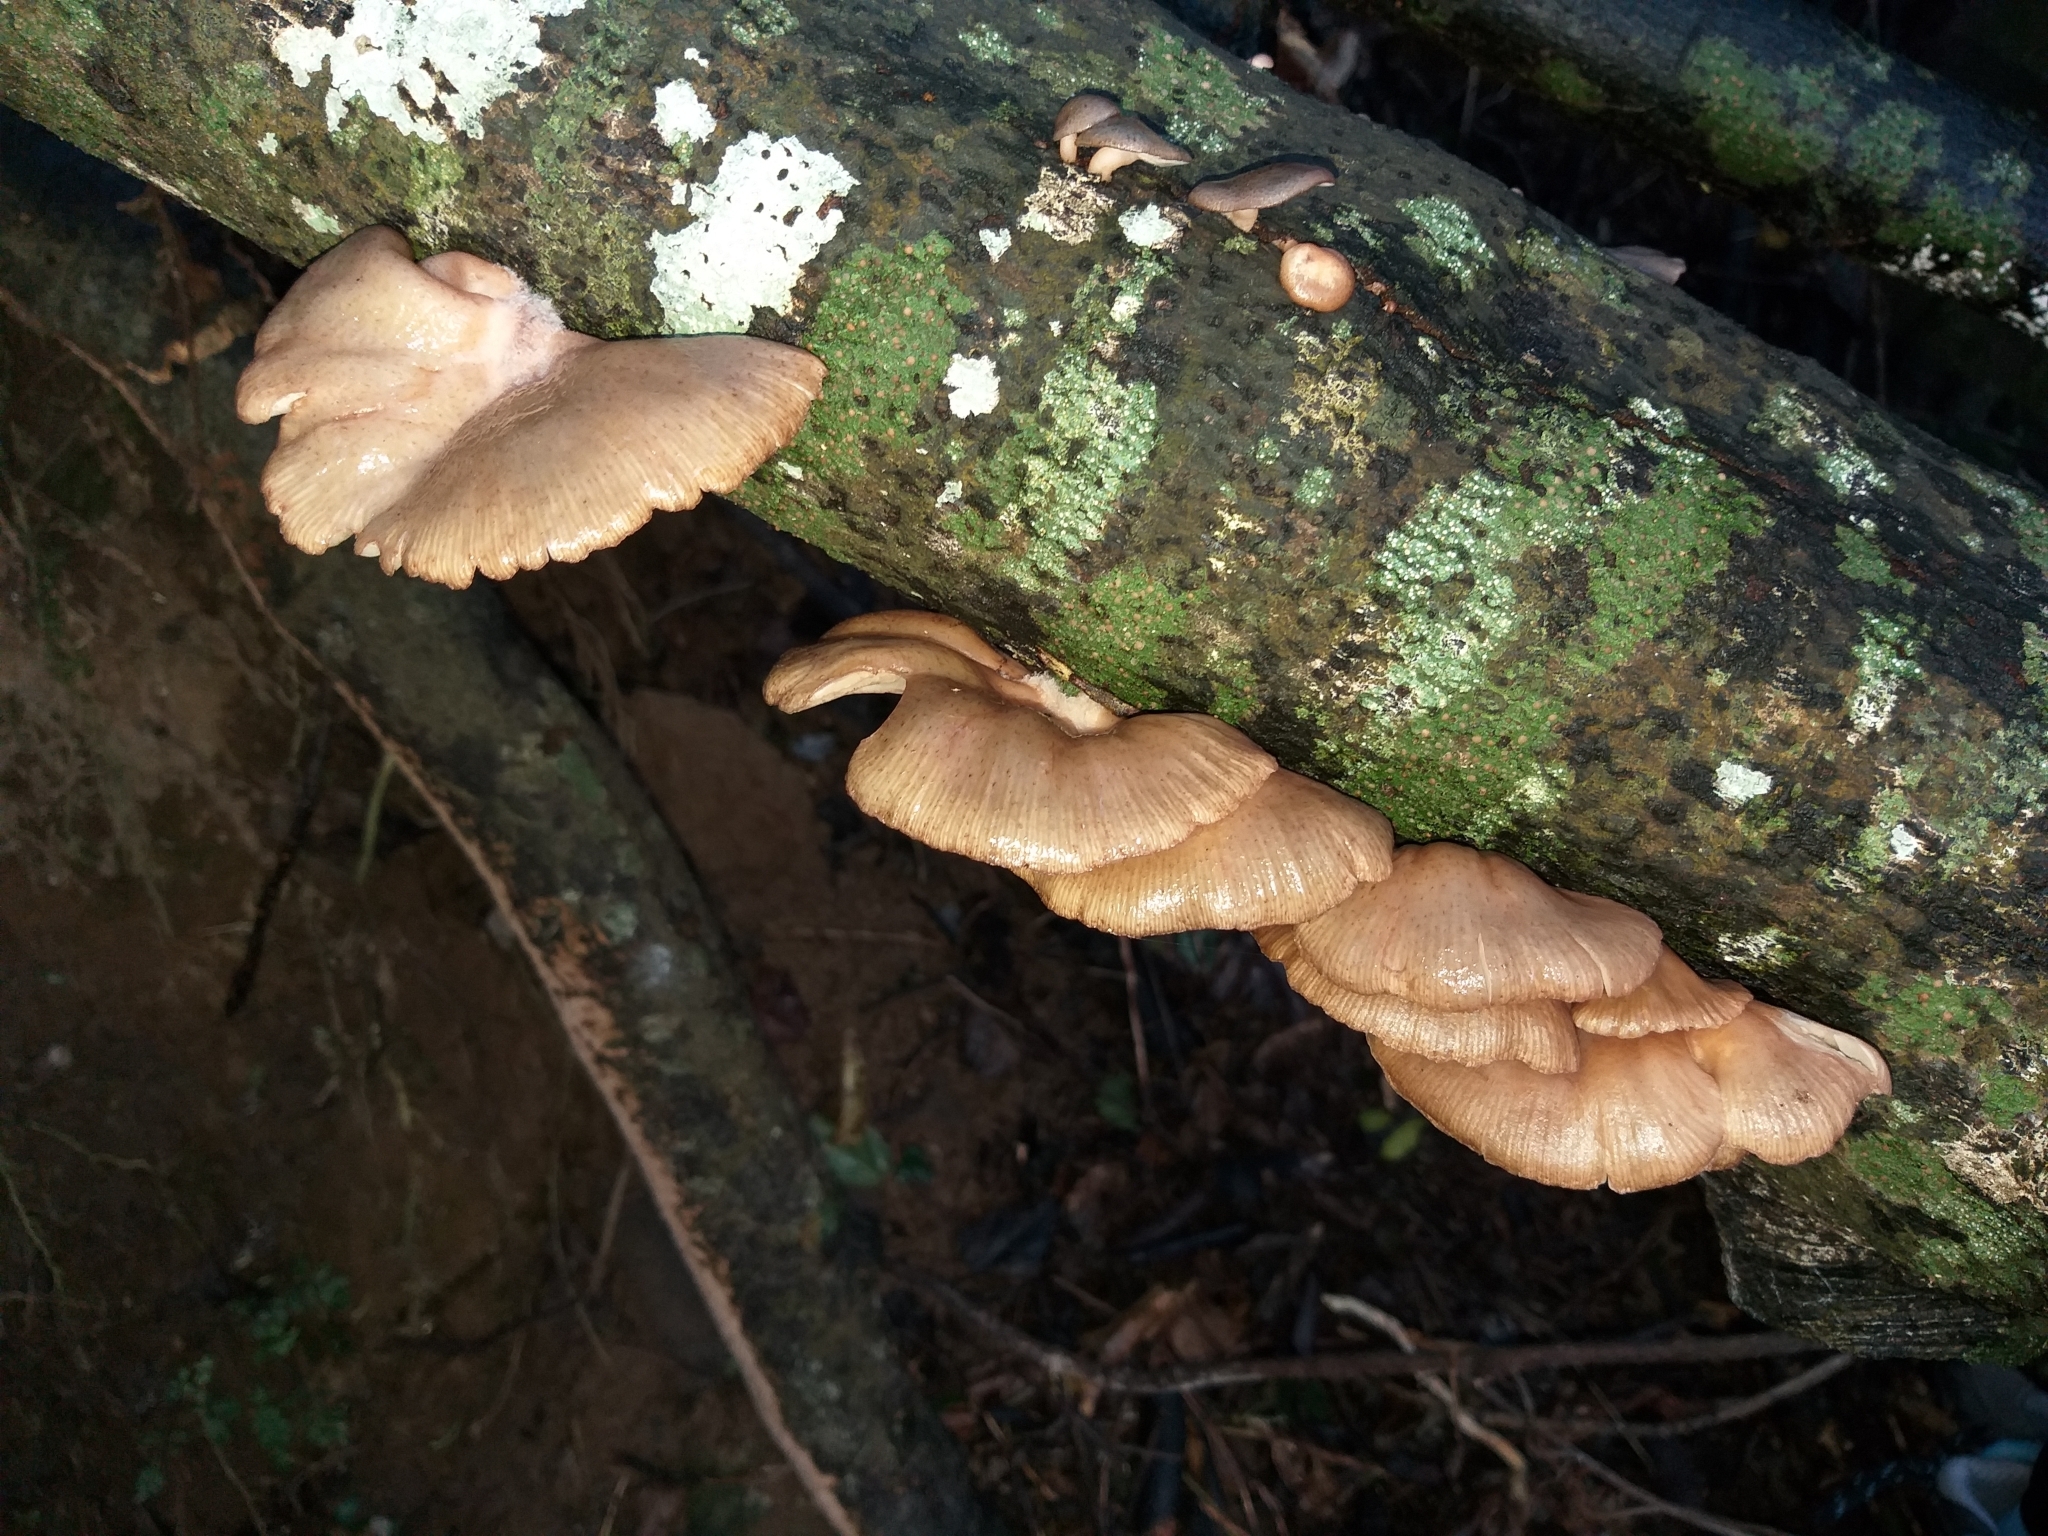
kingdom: Fungi
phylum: Basidiomycota
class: Agaricomycetes
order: Agaricales
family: Mycenaceae
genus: Panellus
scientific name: Panellus longinquus
